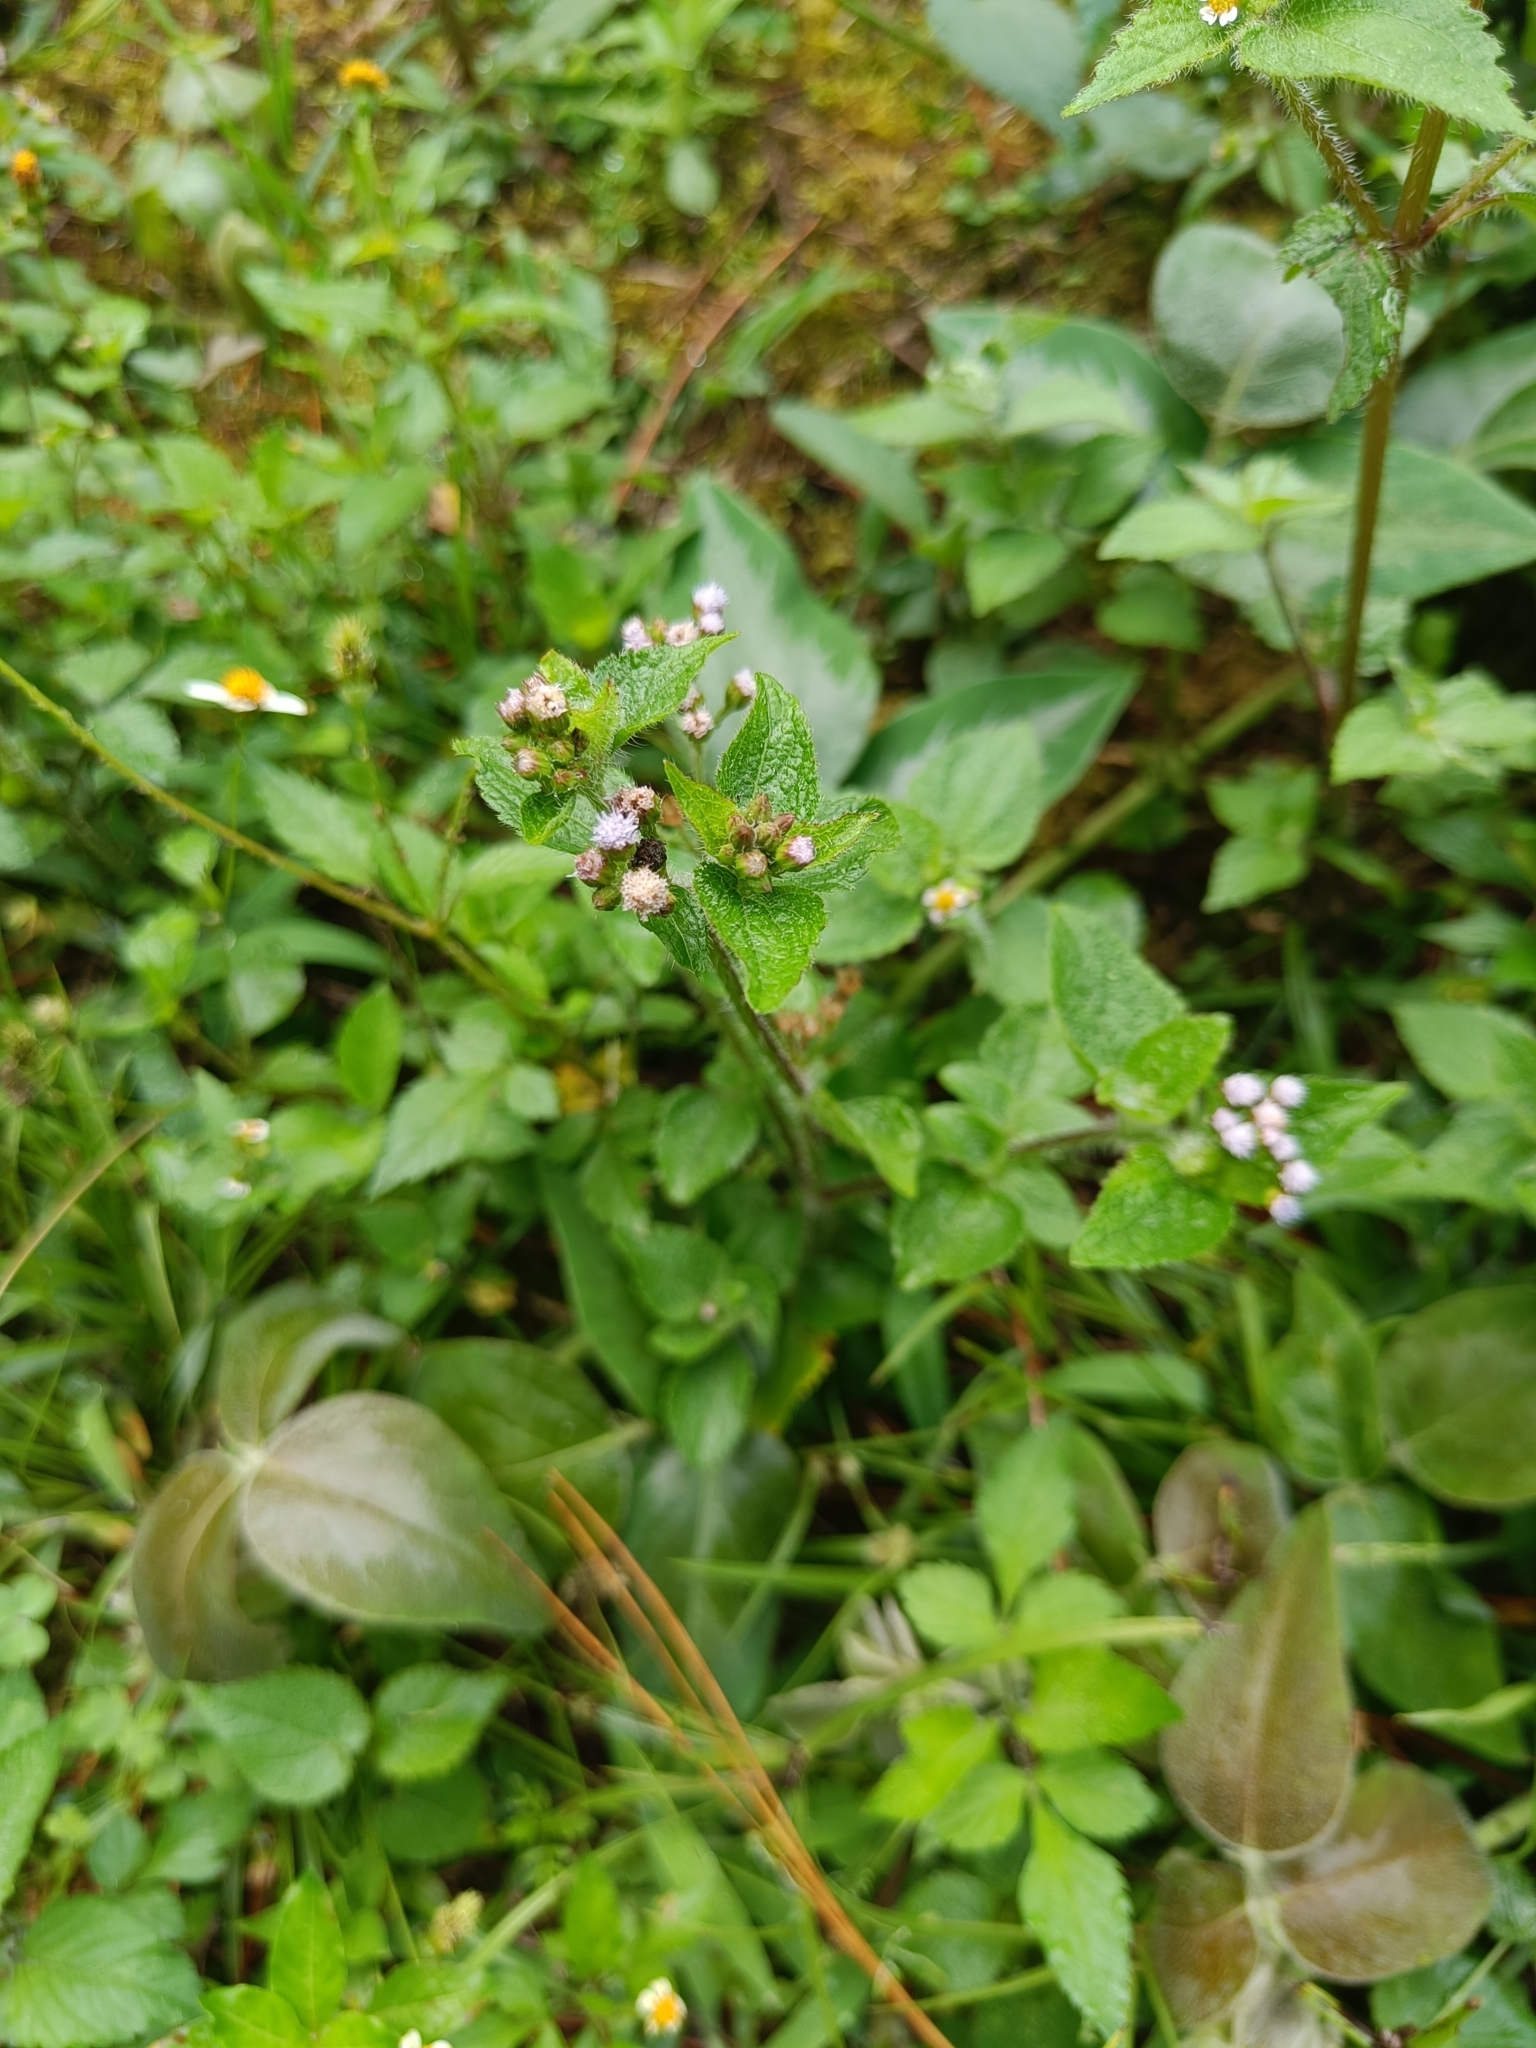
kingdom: Plantae
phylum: Tracheophyta
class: Magnoliopsida
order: Asterales
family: Asteraceae
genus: Ageratum
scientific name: Ageratum conyzoides
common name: Tropical whiteweed
